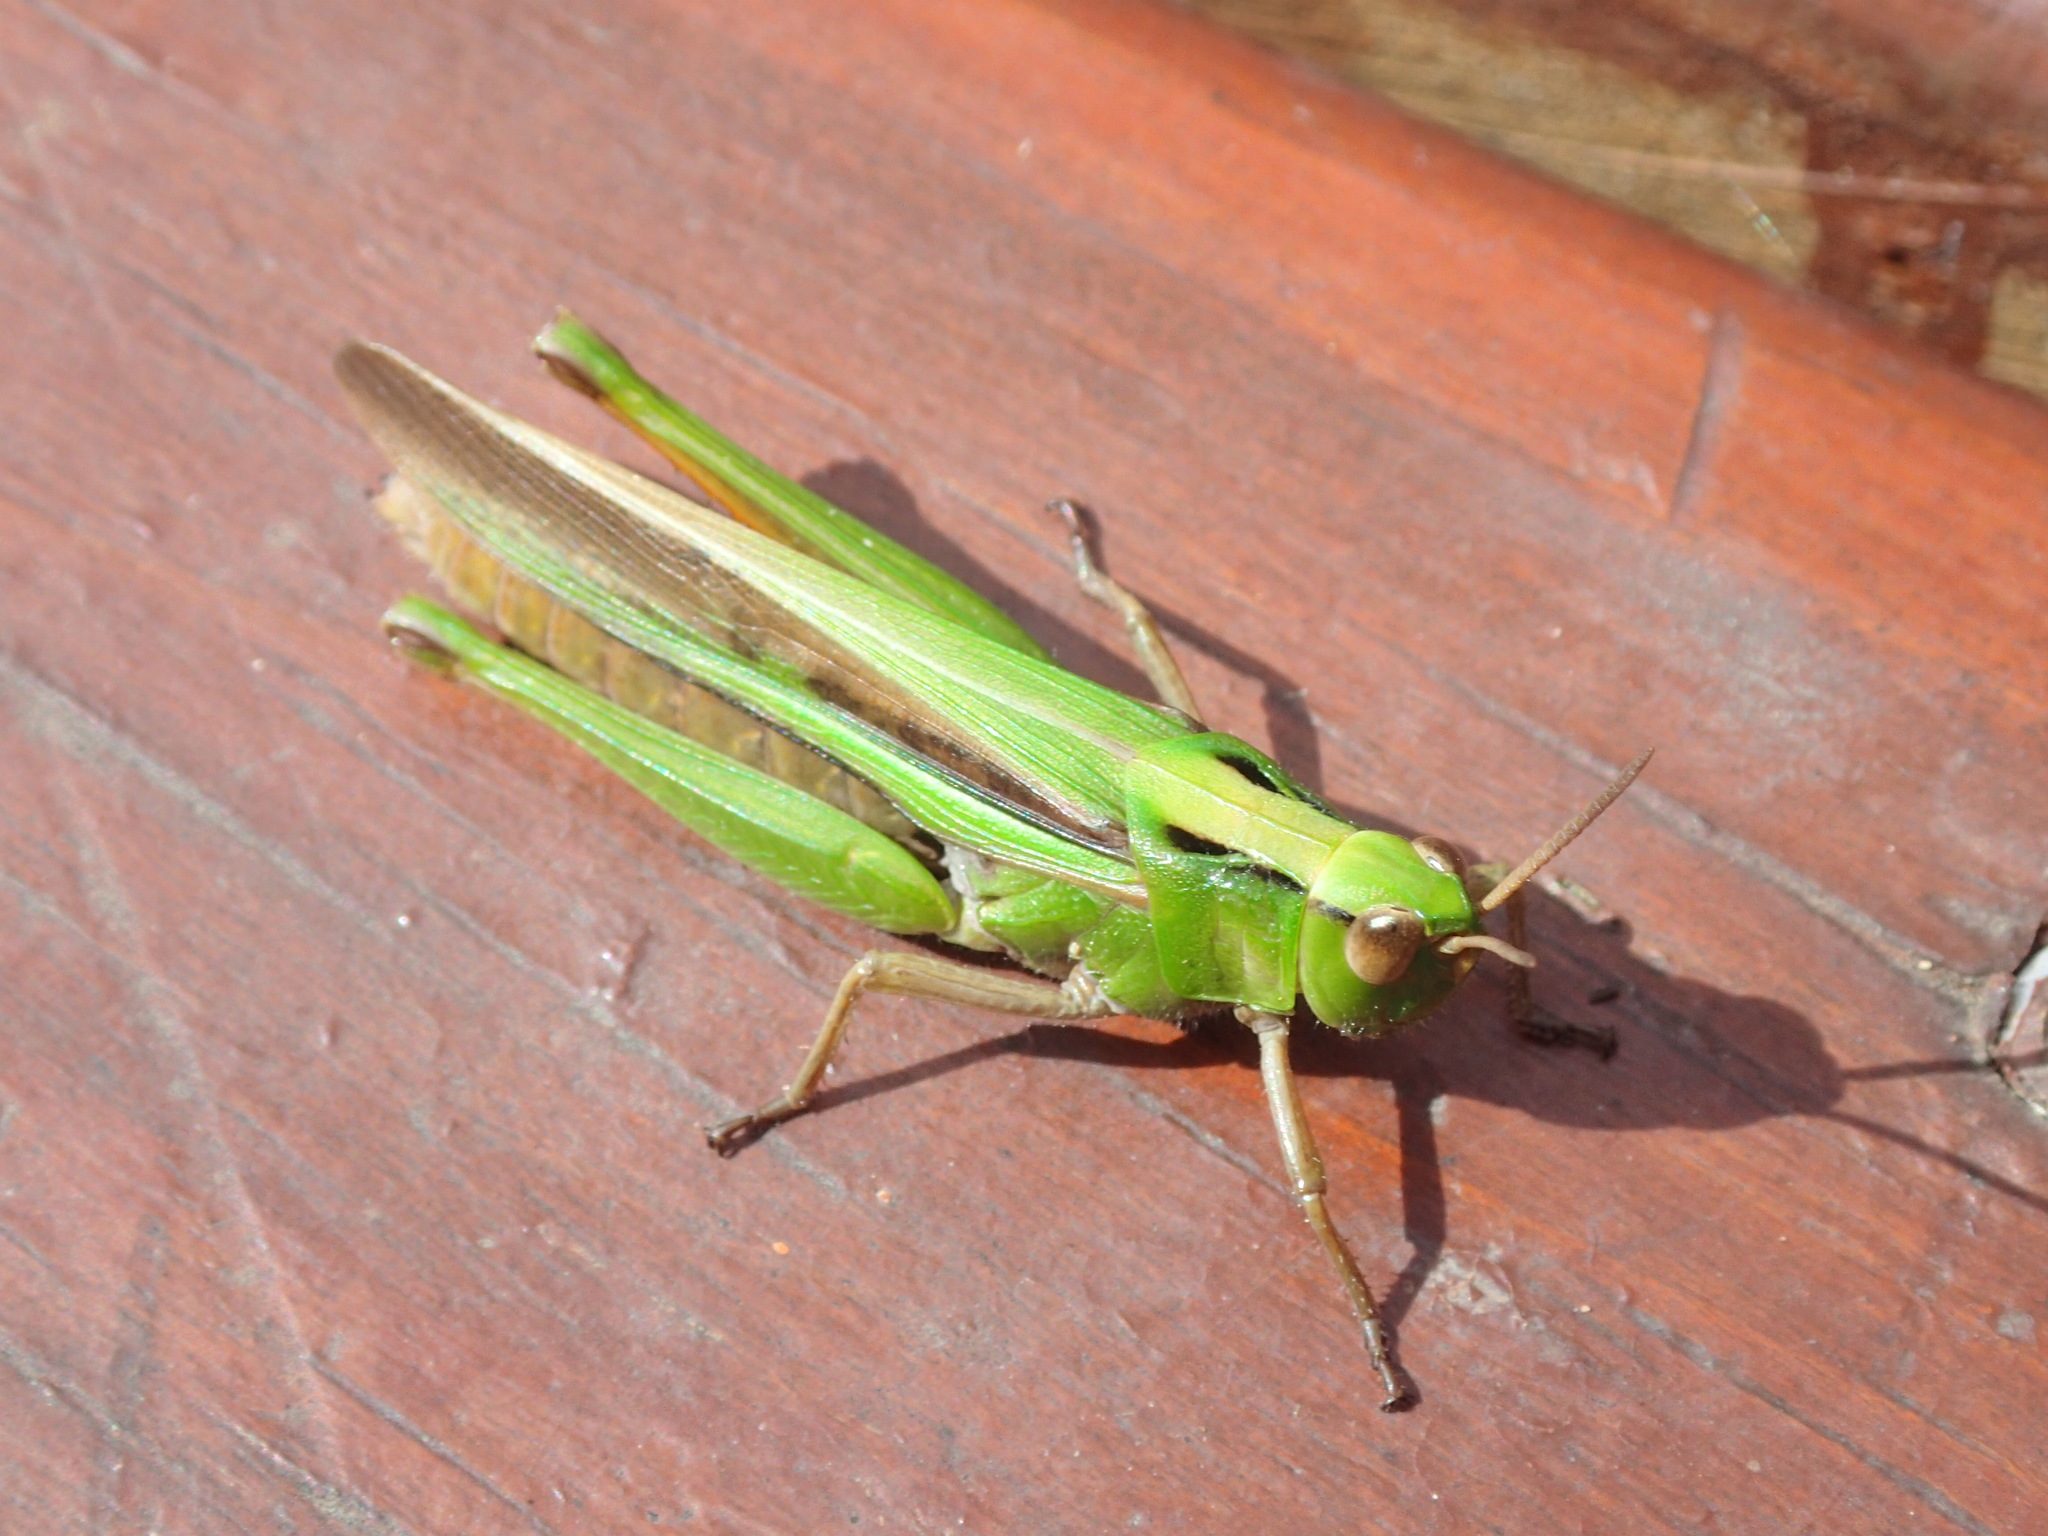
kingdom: Animalia
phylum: Arthropoda
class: Insecta
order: Orthoptera
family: Acrididae
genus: Schizobothrus
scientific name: Schizobothrus flavovittatus
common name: Disappearing grasshopper
